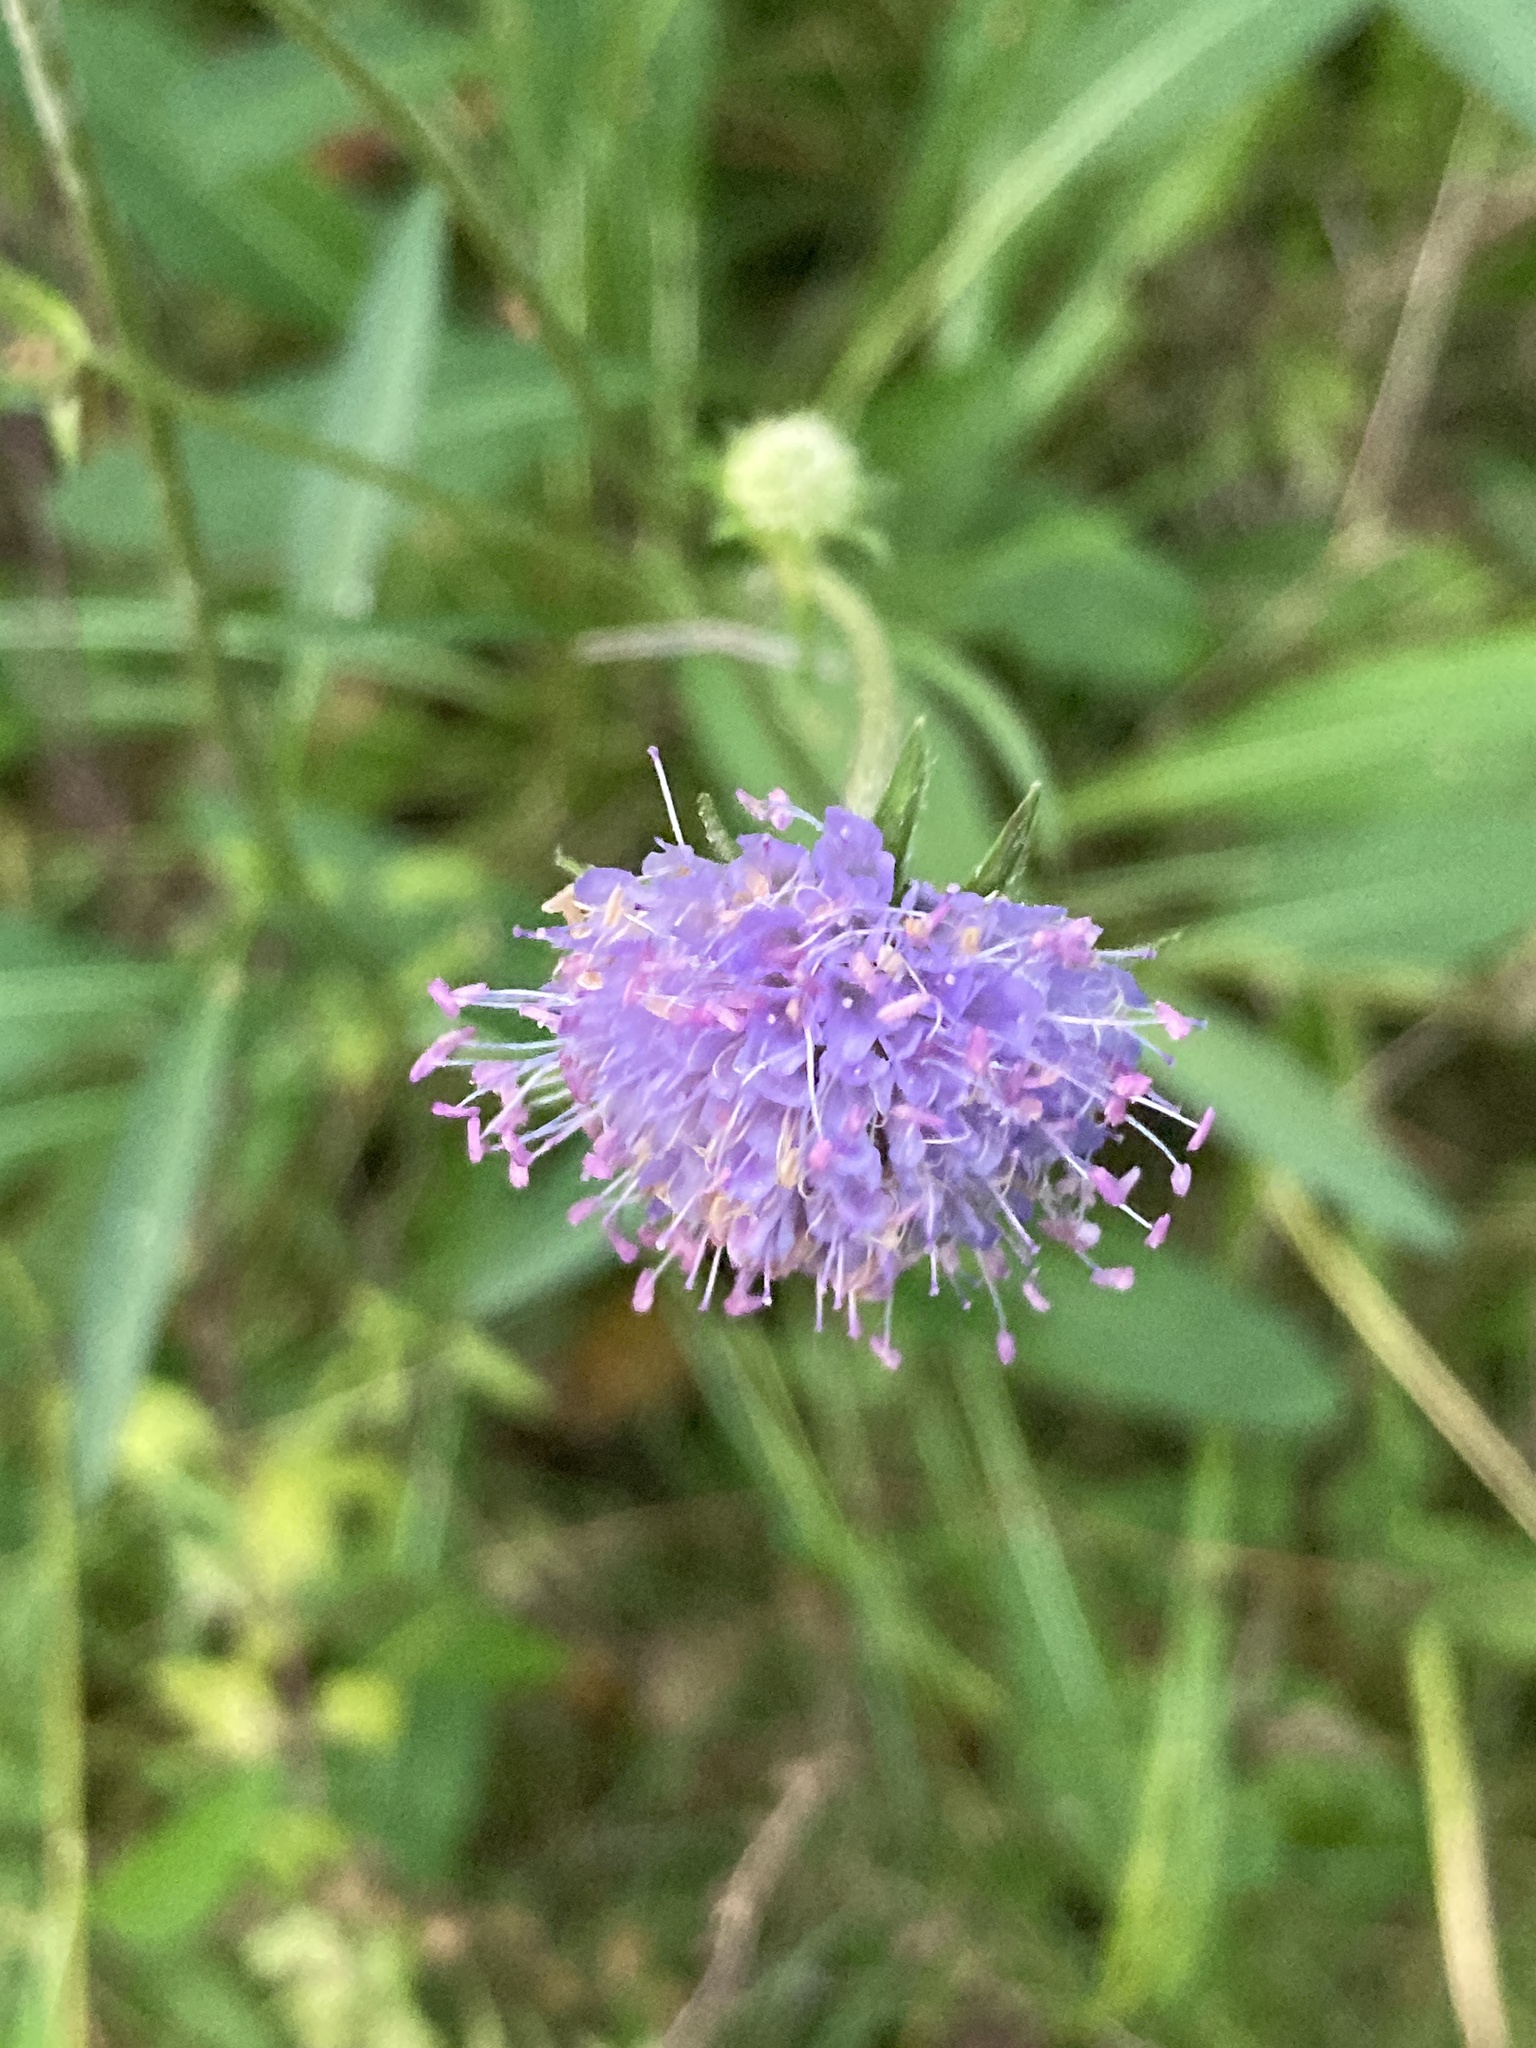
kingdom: Plantae
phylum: Tracheophyta
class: Magnoliopsida
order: Dipsacales
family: Caprifoliaceae
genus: Succisa
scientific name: Succisa pratensis
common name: Devil's-bit
